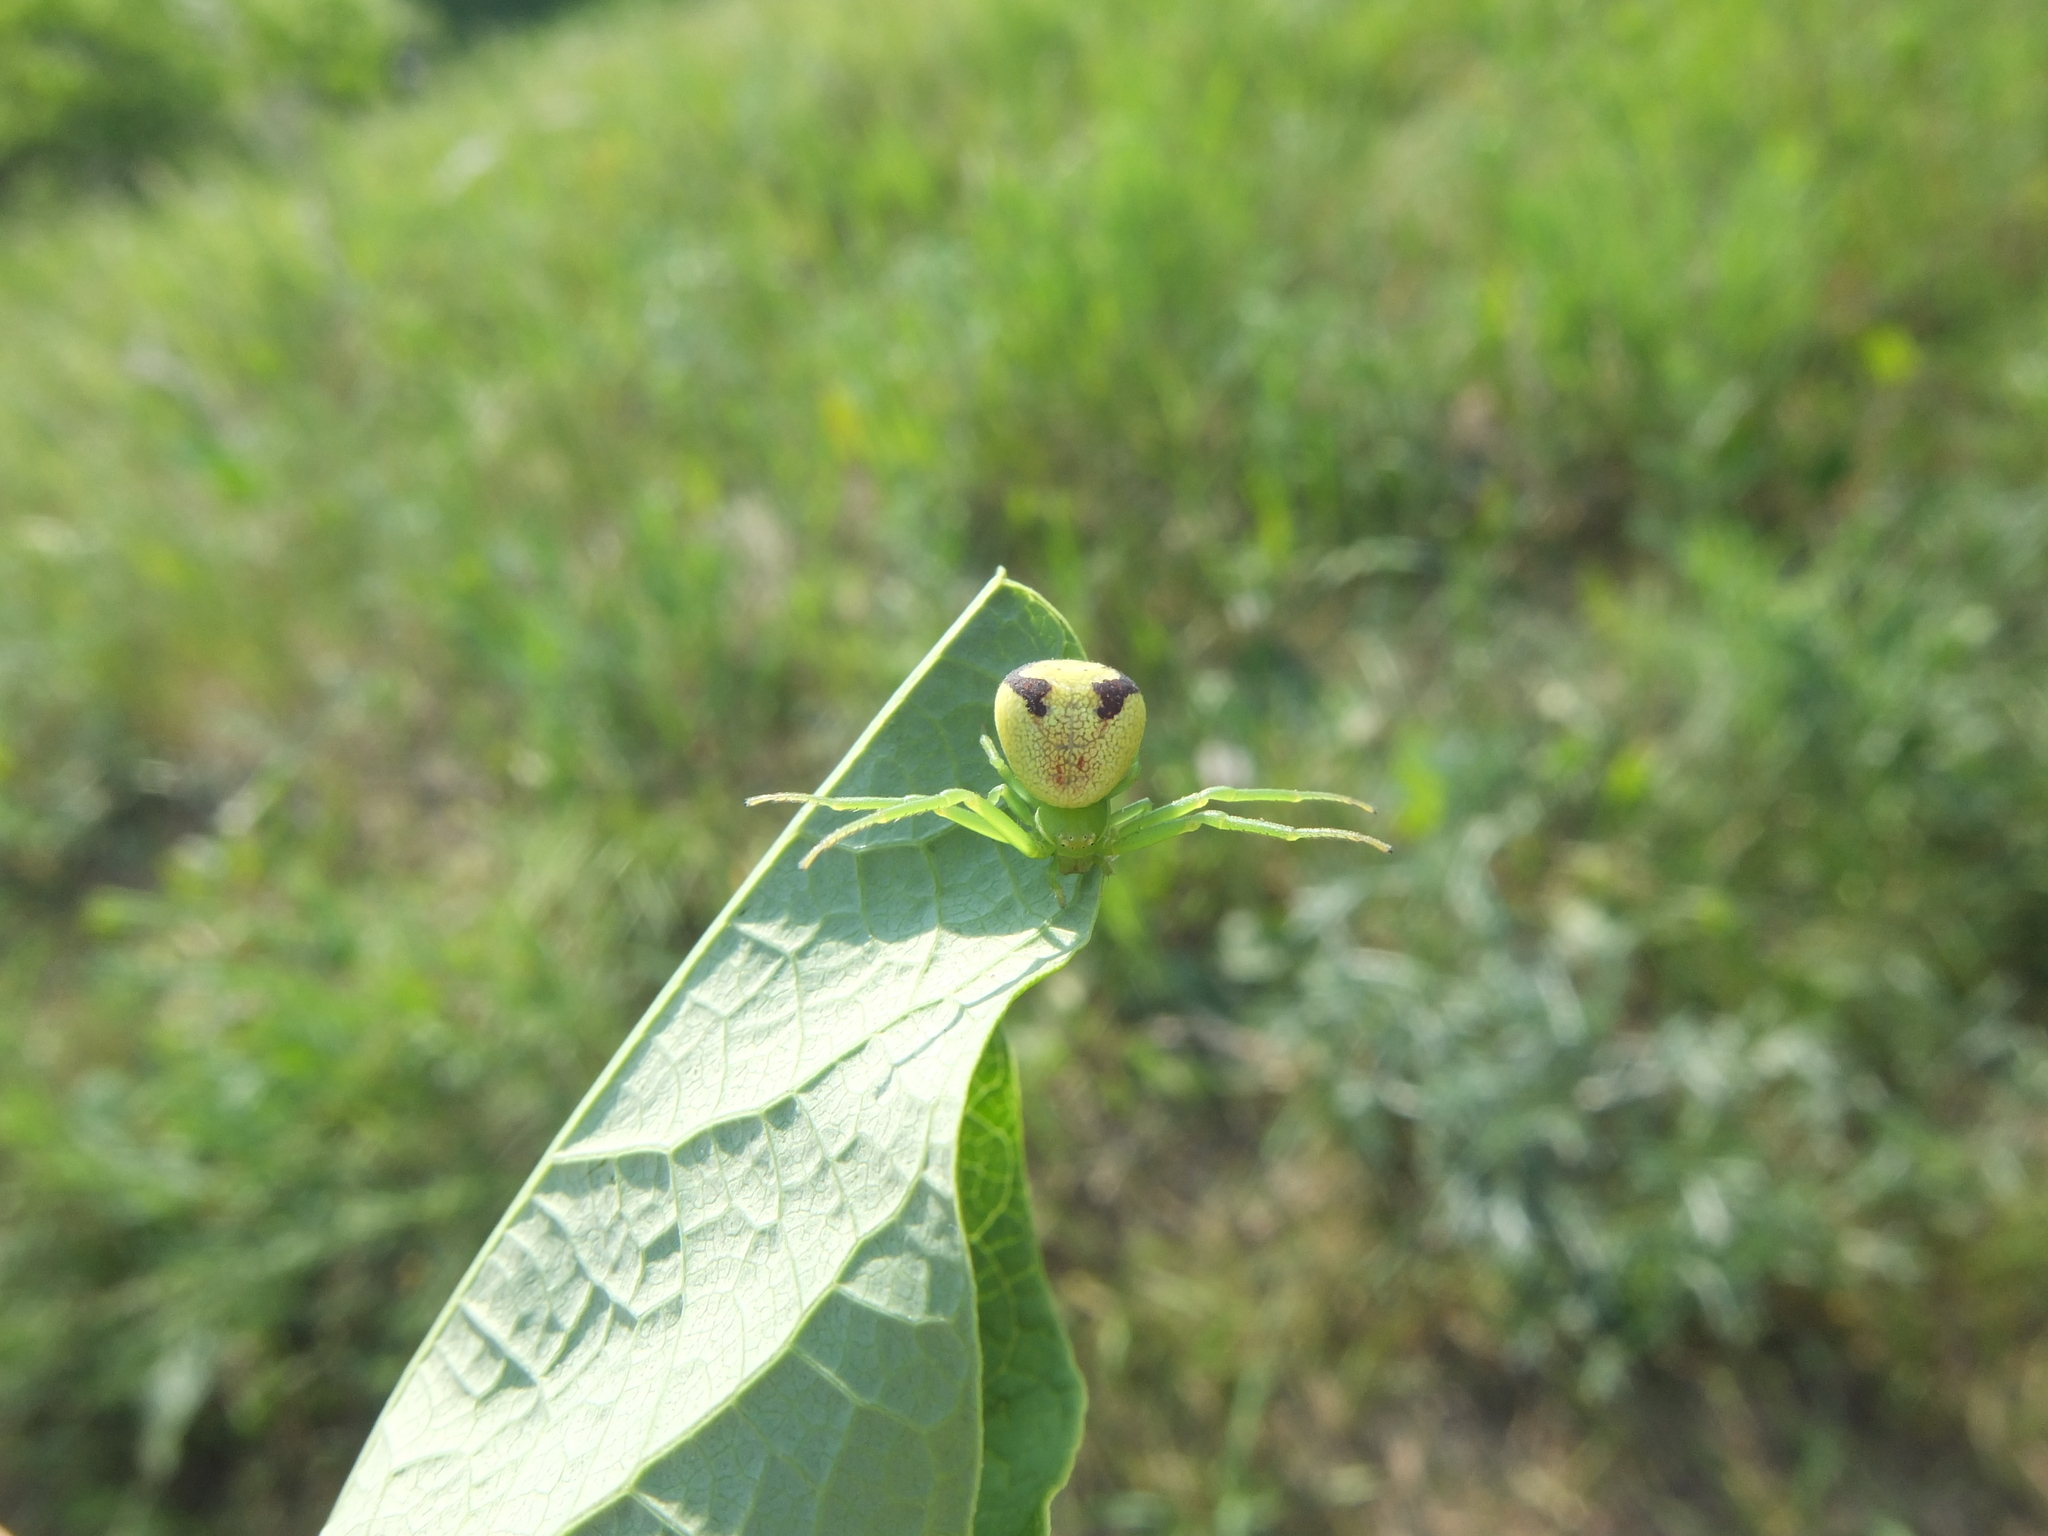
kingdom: Animalia
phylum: Arthropoda
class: Arachnida
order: Araneae
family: Thomisidae
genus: Ebrechtella
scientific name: Ebrechtella tricuspidata
